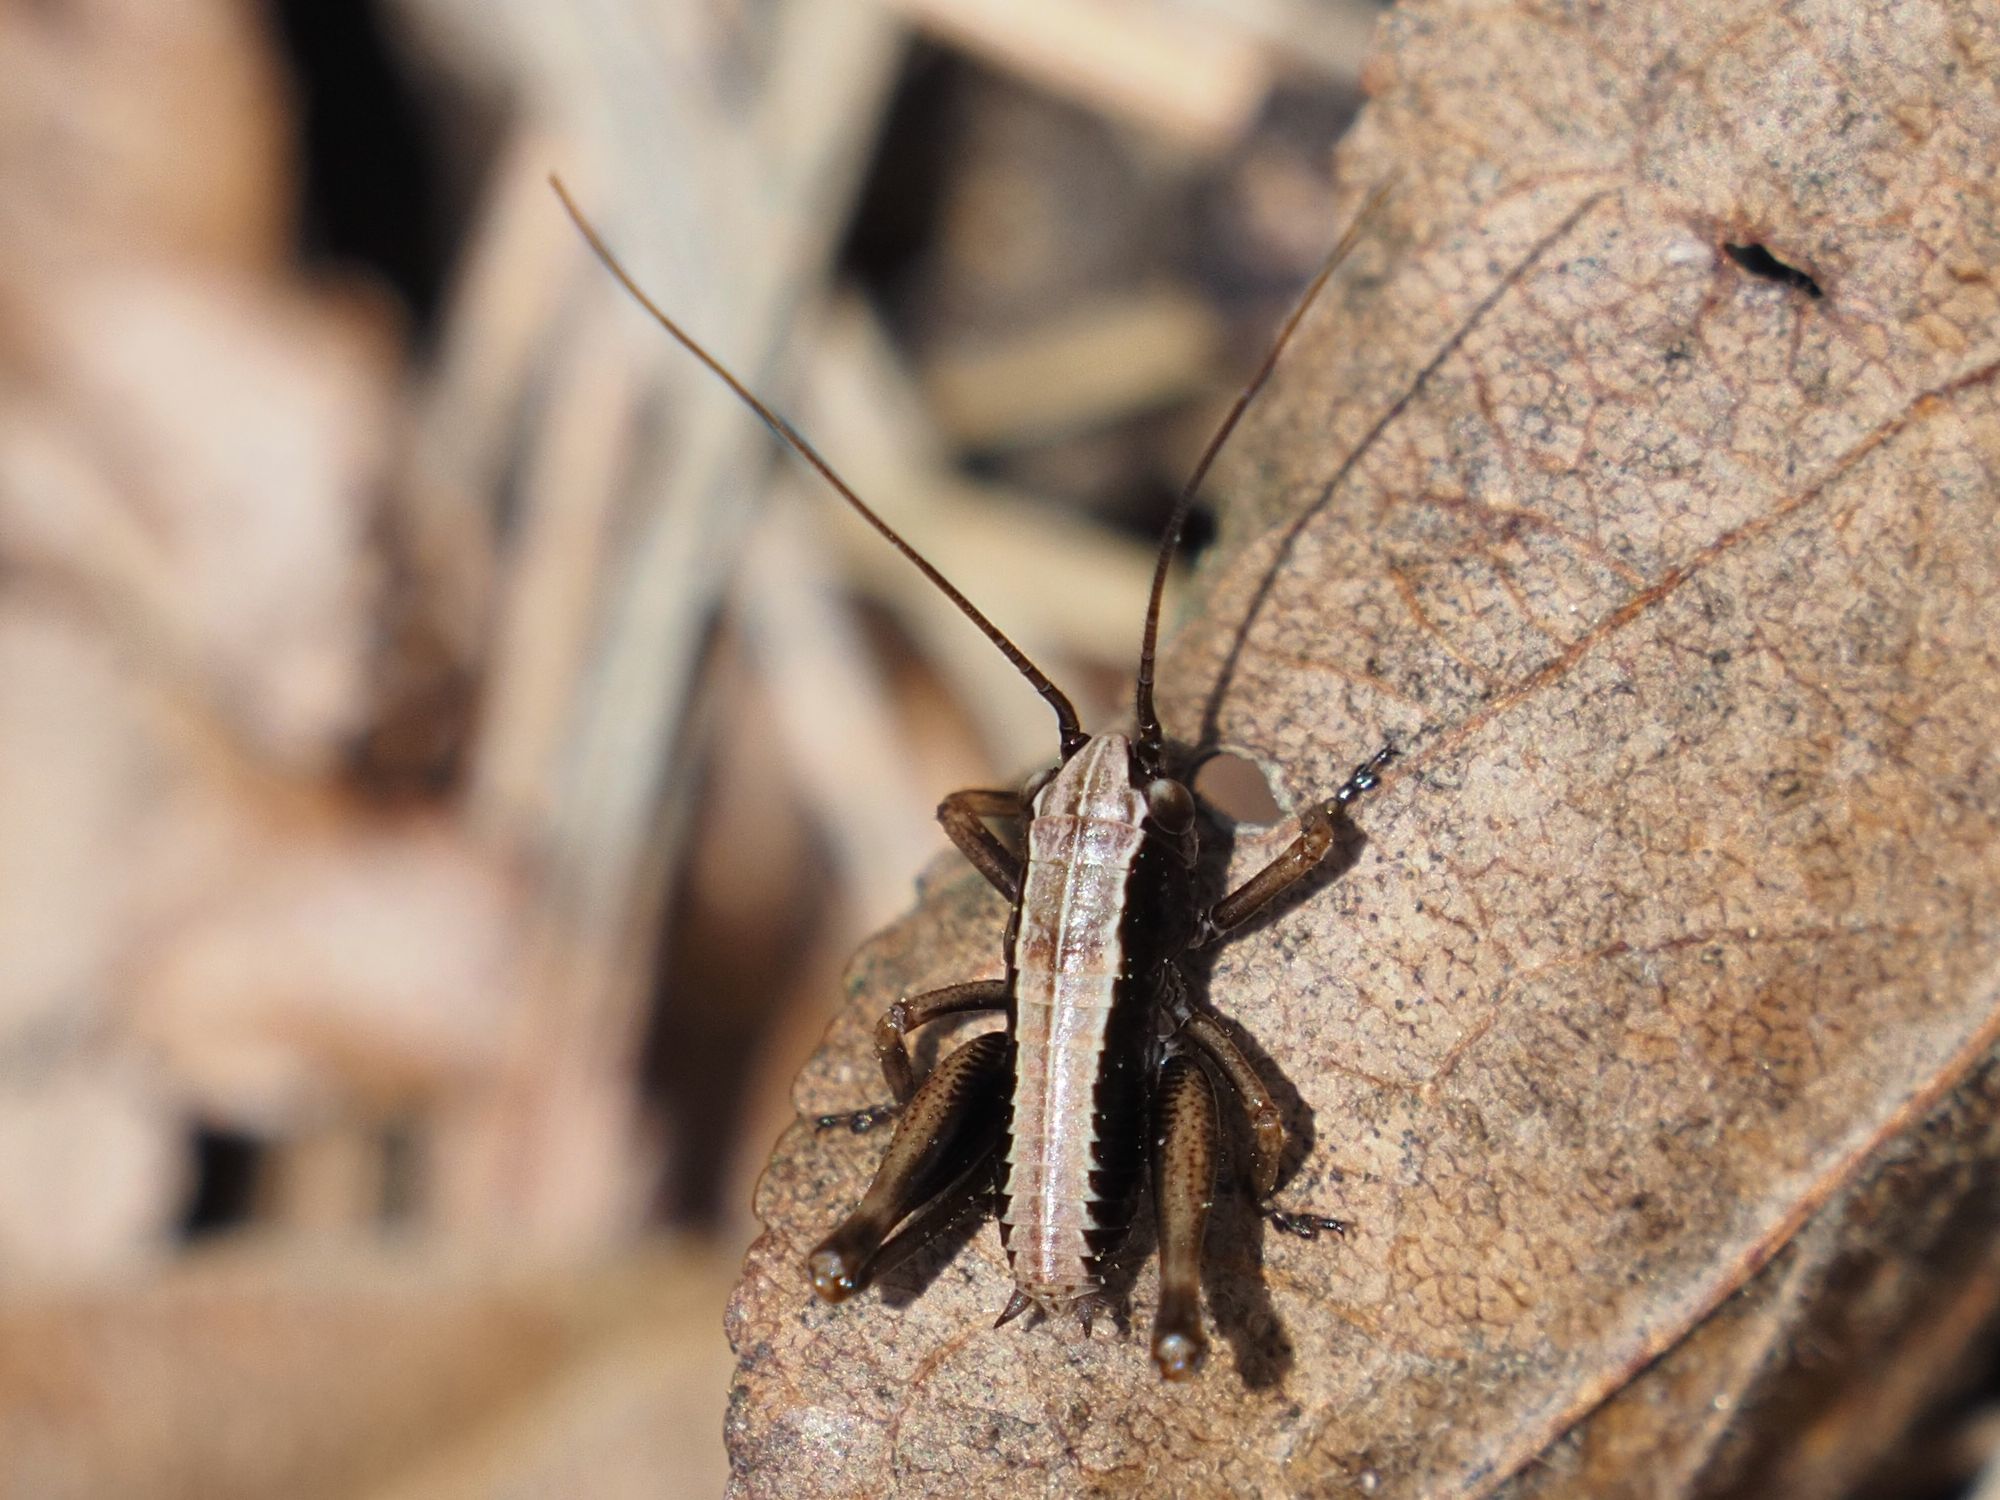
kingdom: Animalia
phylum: Arthropoda
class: Insecta
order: Orthoptera
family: Tettigoniidae
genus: Pholidoptera
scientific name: Pholidoptera griseoaptera
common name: Dark bush-cricket
